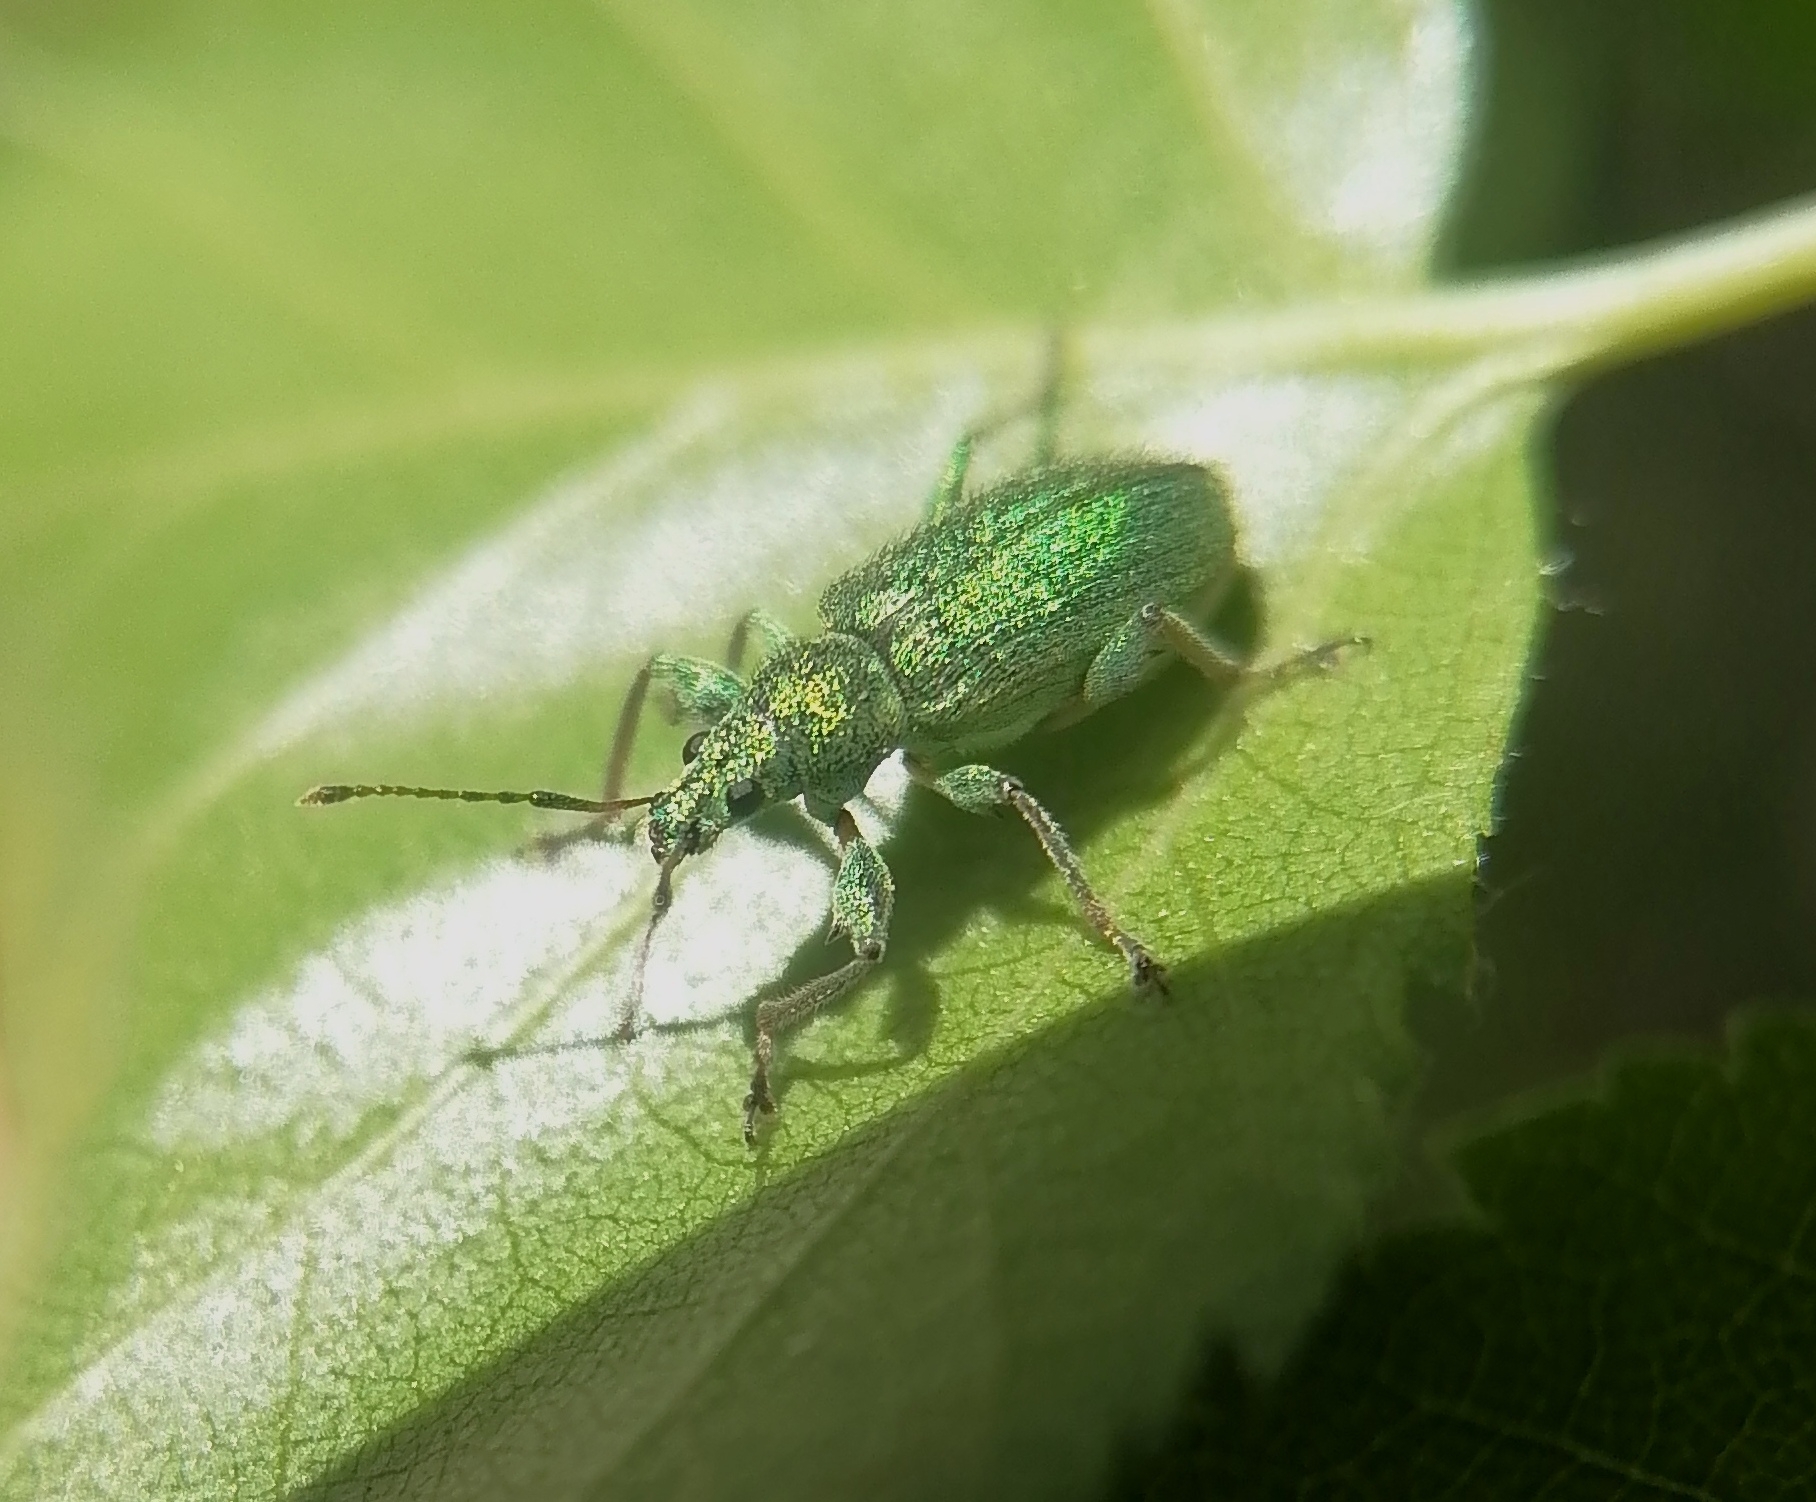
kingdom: Animalia
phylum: Arthropoda
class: Insecta
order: Coleoptera
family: Curculionidae
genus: Phyllobius
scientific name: Phyllobius arborator
